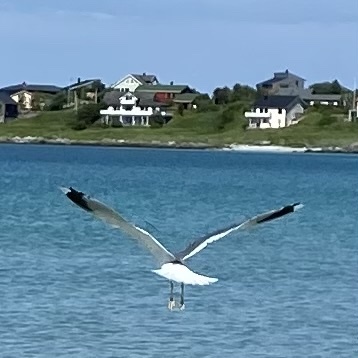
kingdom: Animalia
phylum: Chordata
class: Aves
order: Charadriiformes
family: Laridae
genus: Larus
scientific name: Larus canus
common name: Mew gull
